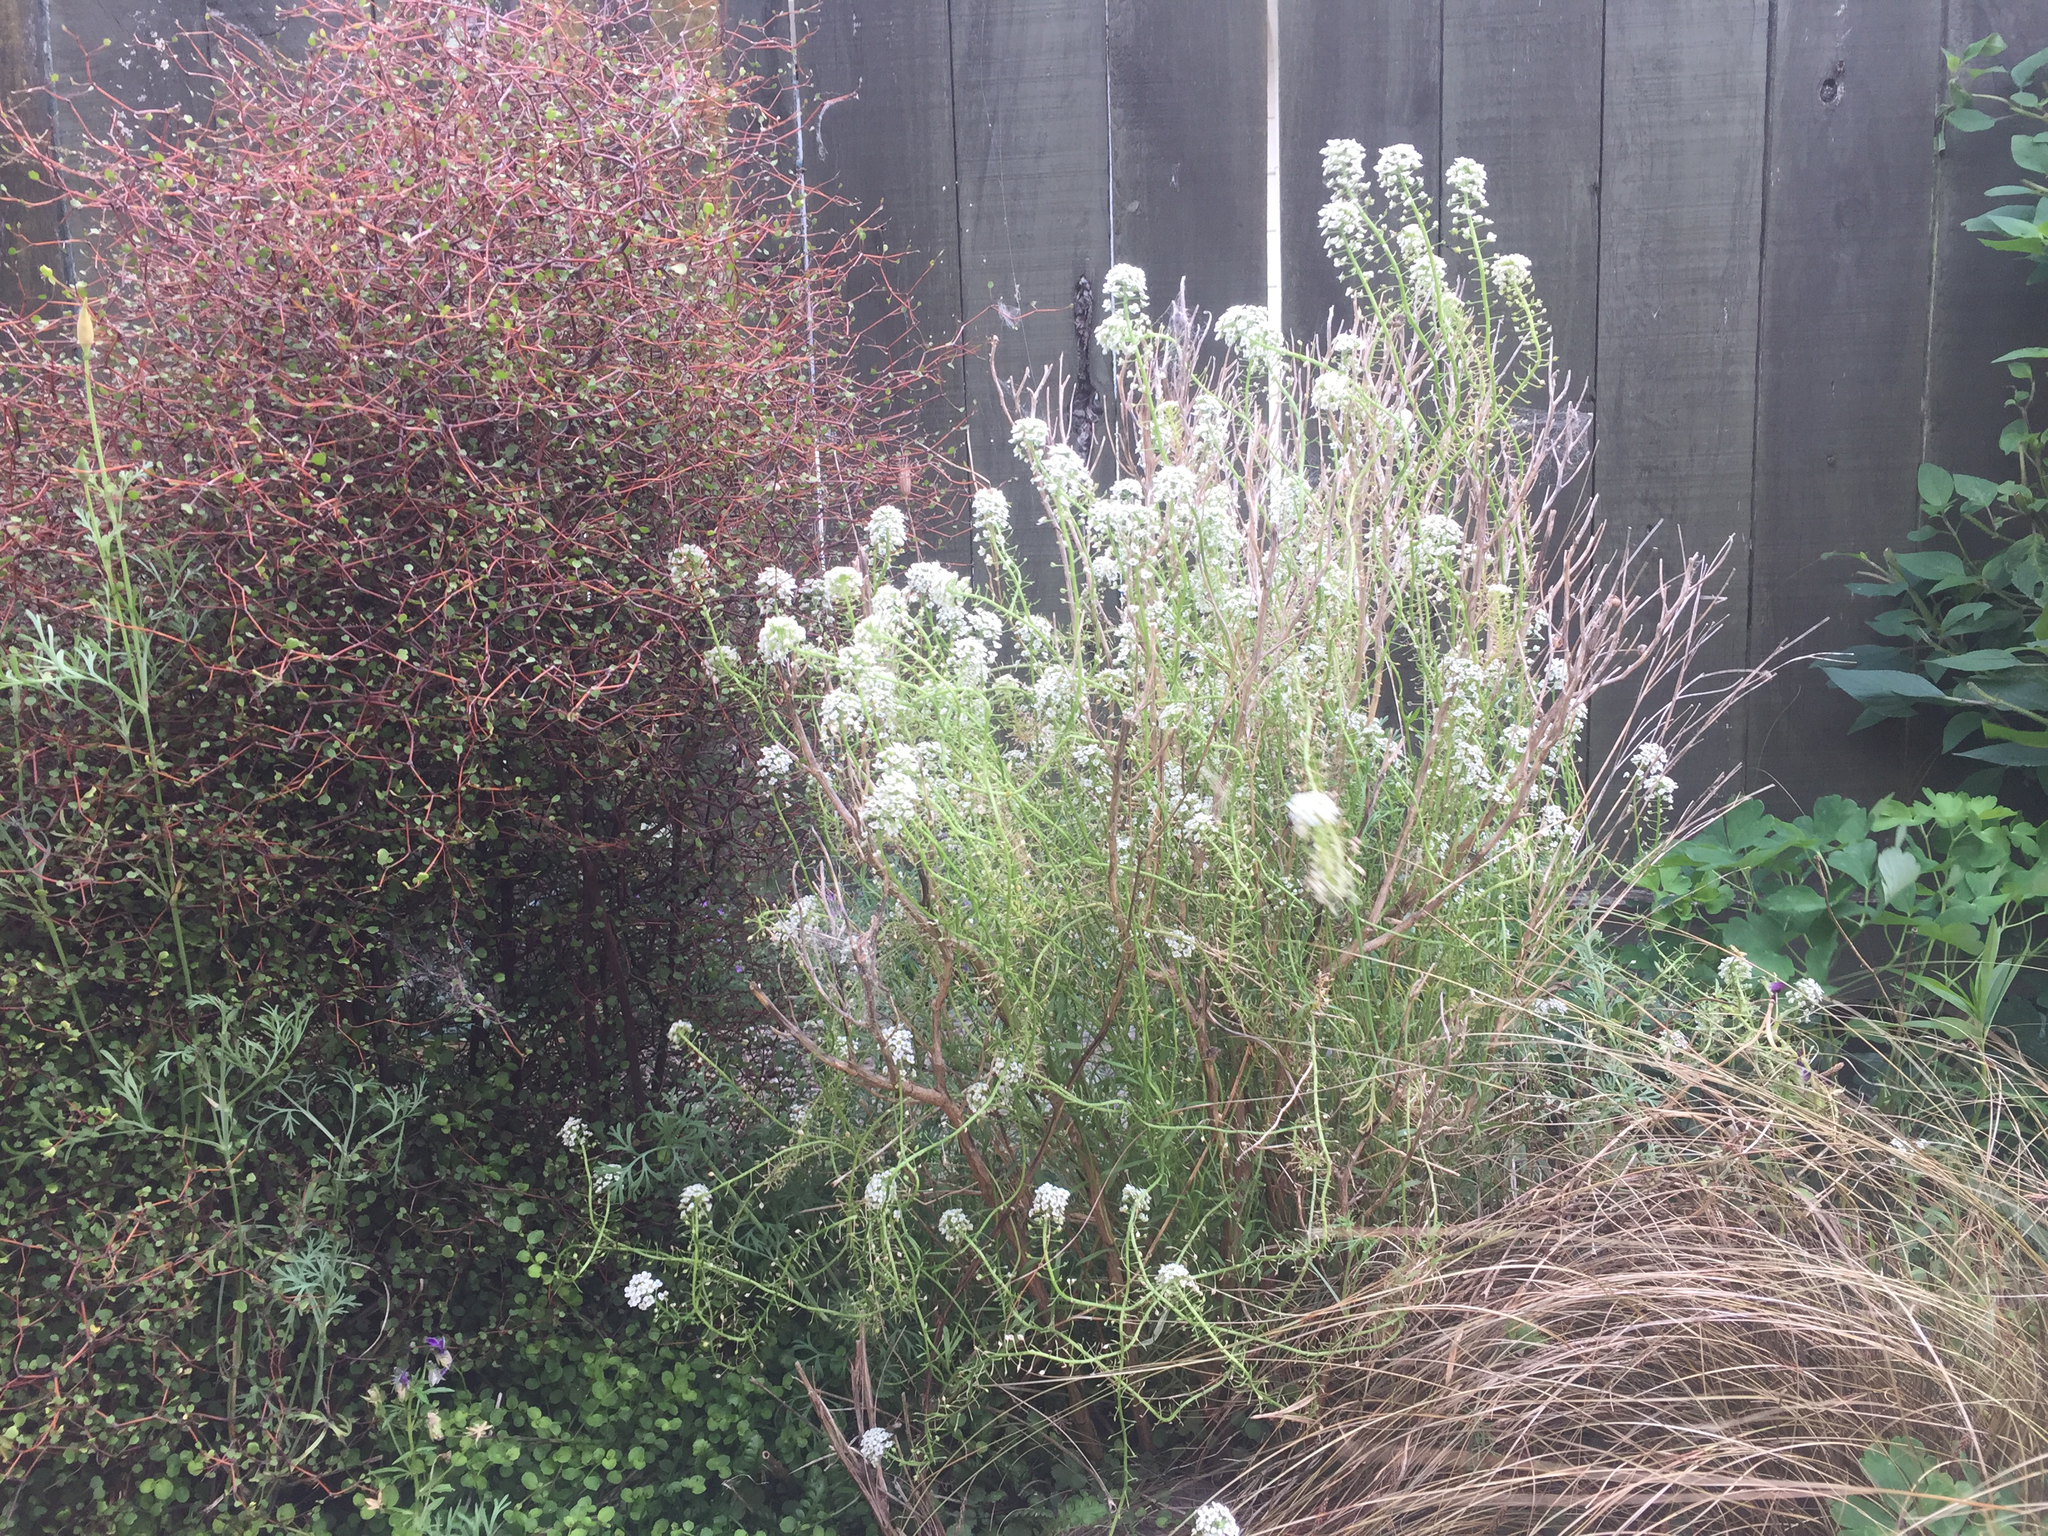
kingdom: Plantae
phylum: Tracheophyta
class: Magnoliopsida
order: Brassicales
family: Brassicaceae
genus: Lobularia
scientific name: Lobularia maritima
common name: Sweet alison
